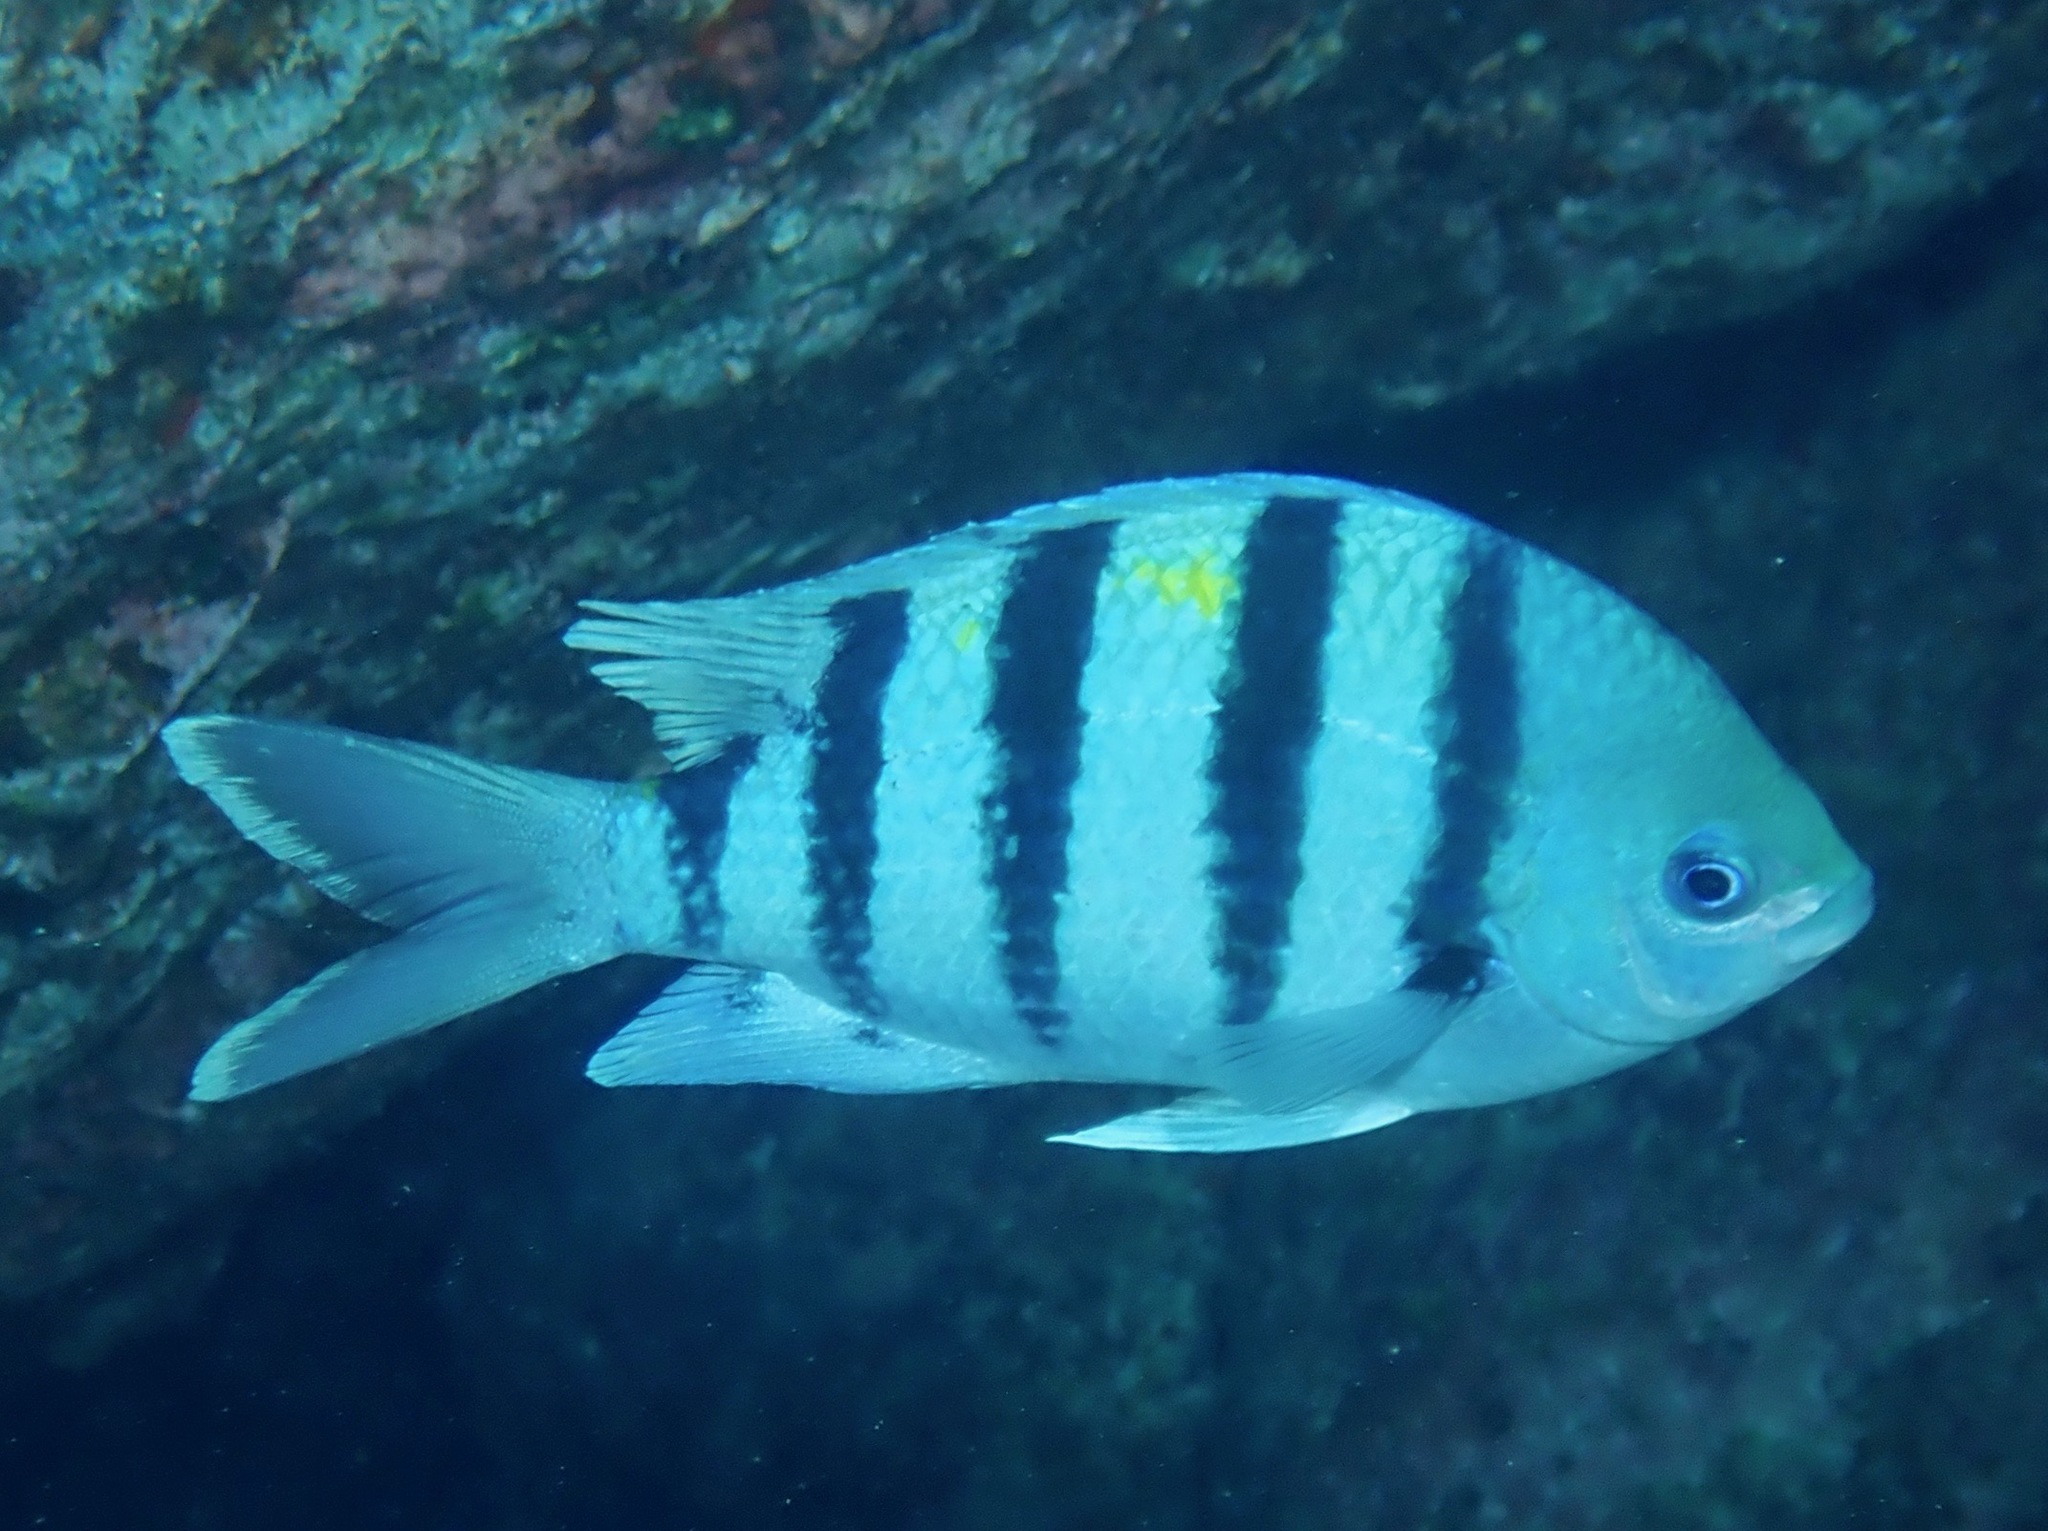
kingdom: Animalia
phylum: Chordata
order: Perciformes
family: Pomacentridae
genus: Abudefduf
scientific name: Abudefduf
